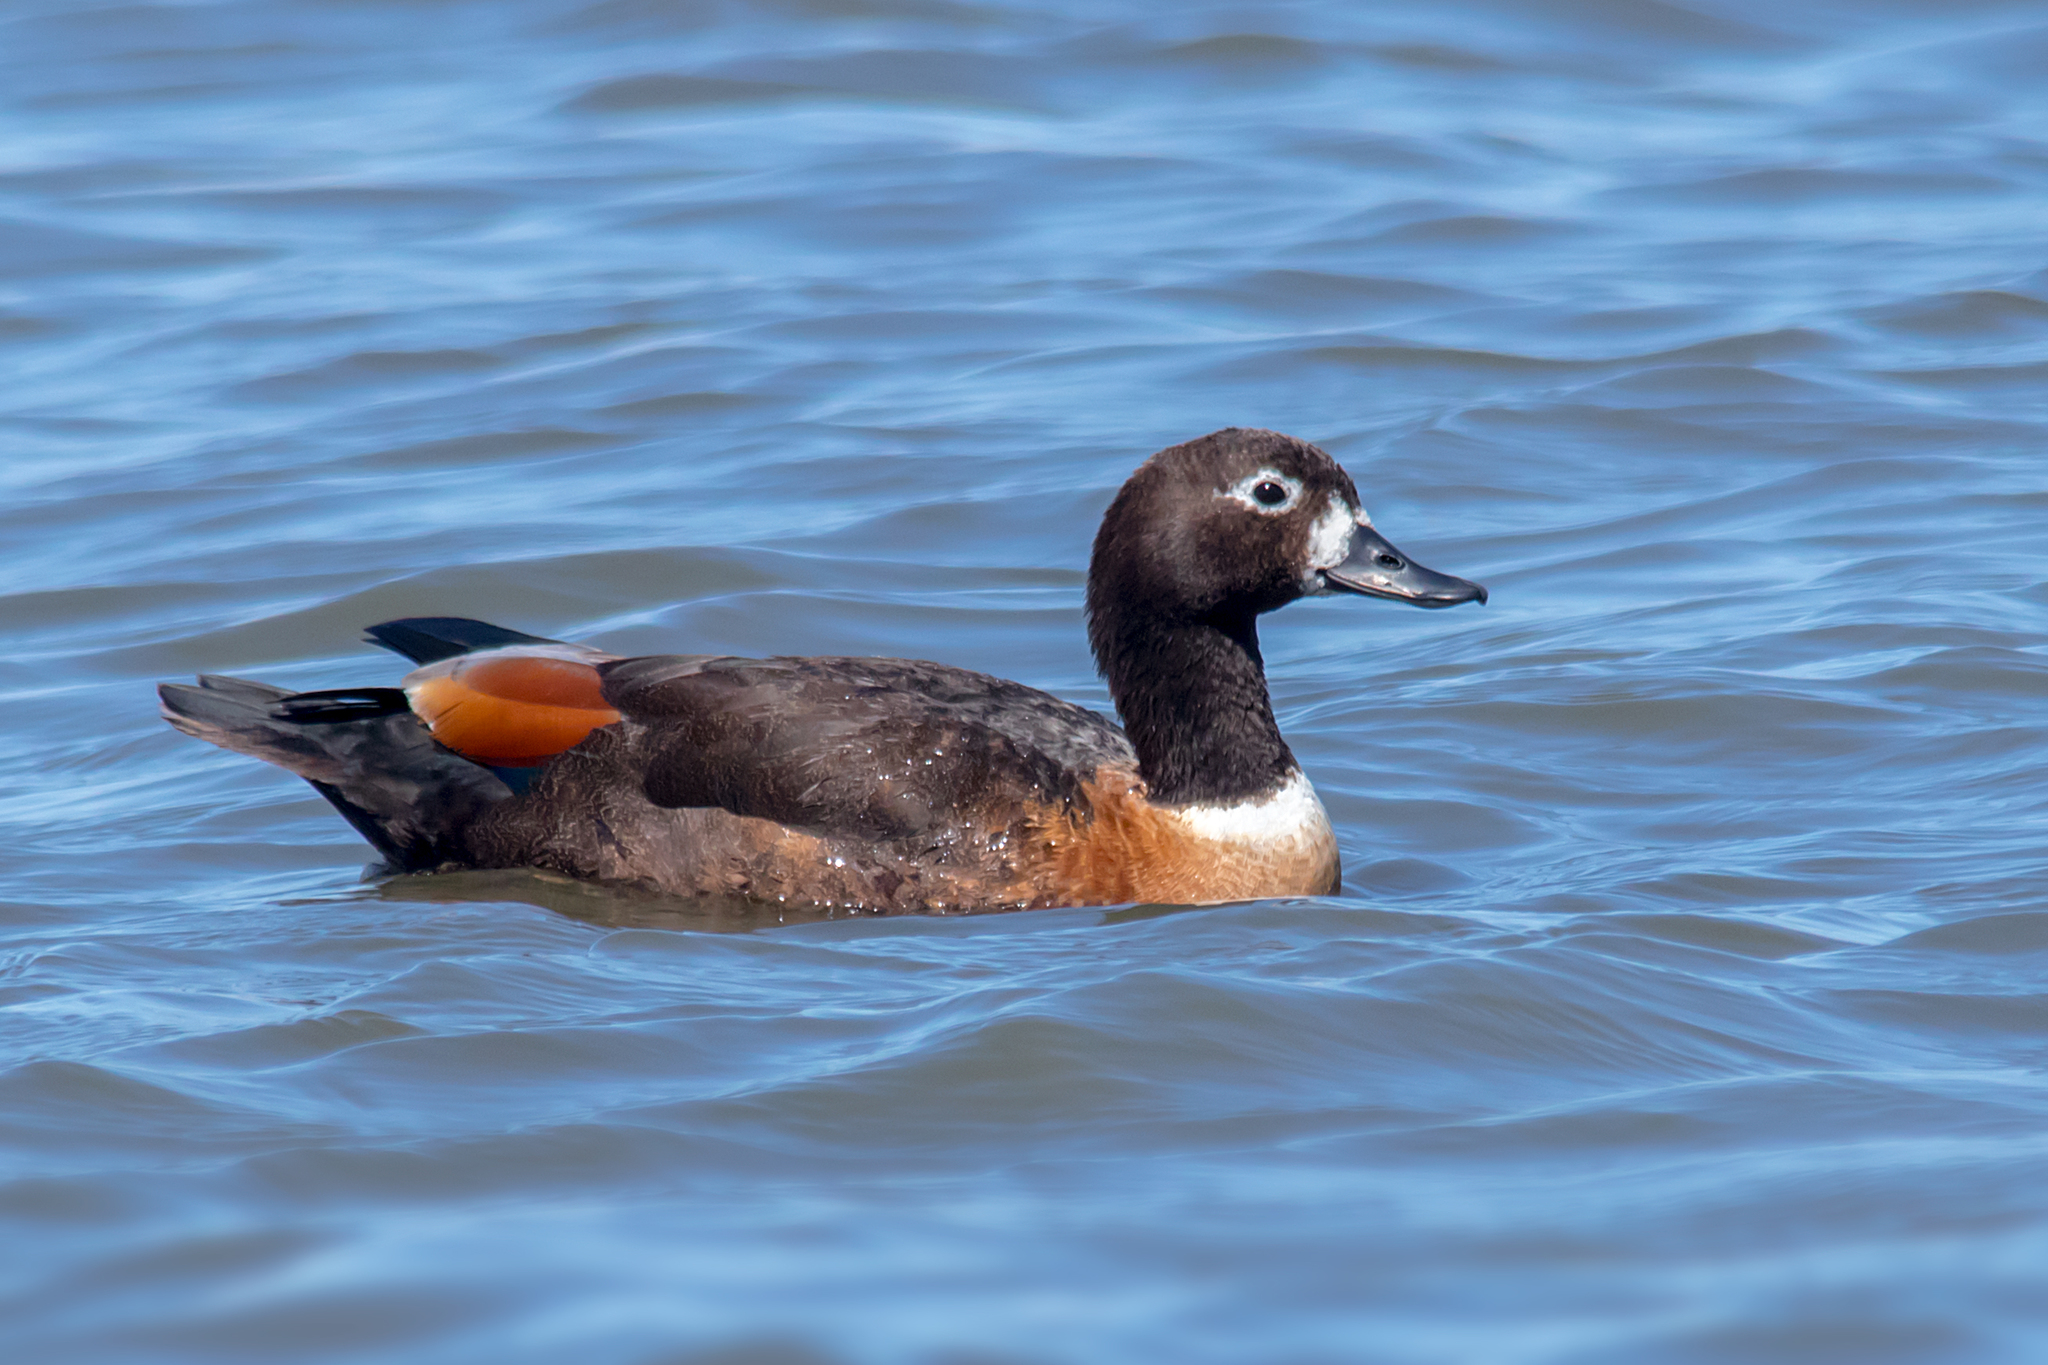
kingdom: Animalia
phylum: Chordata
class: Aves
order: Anseriformes
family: Anatidae
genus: Tadorna
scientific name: Tadorna tadornoides
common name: Australian shelduck
